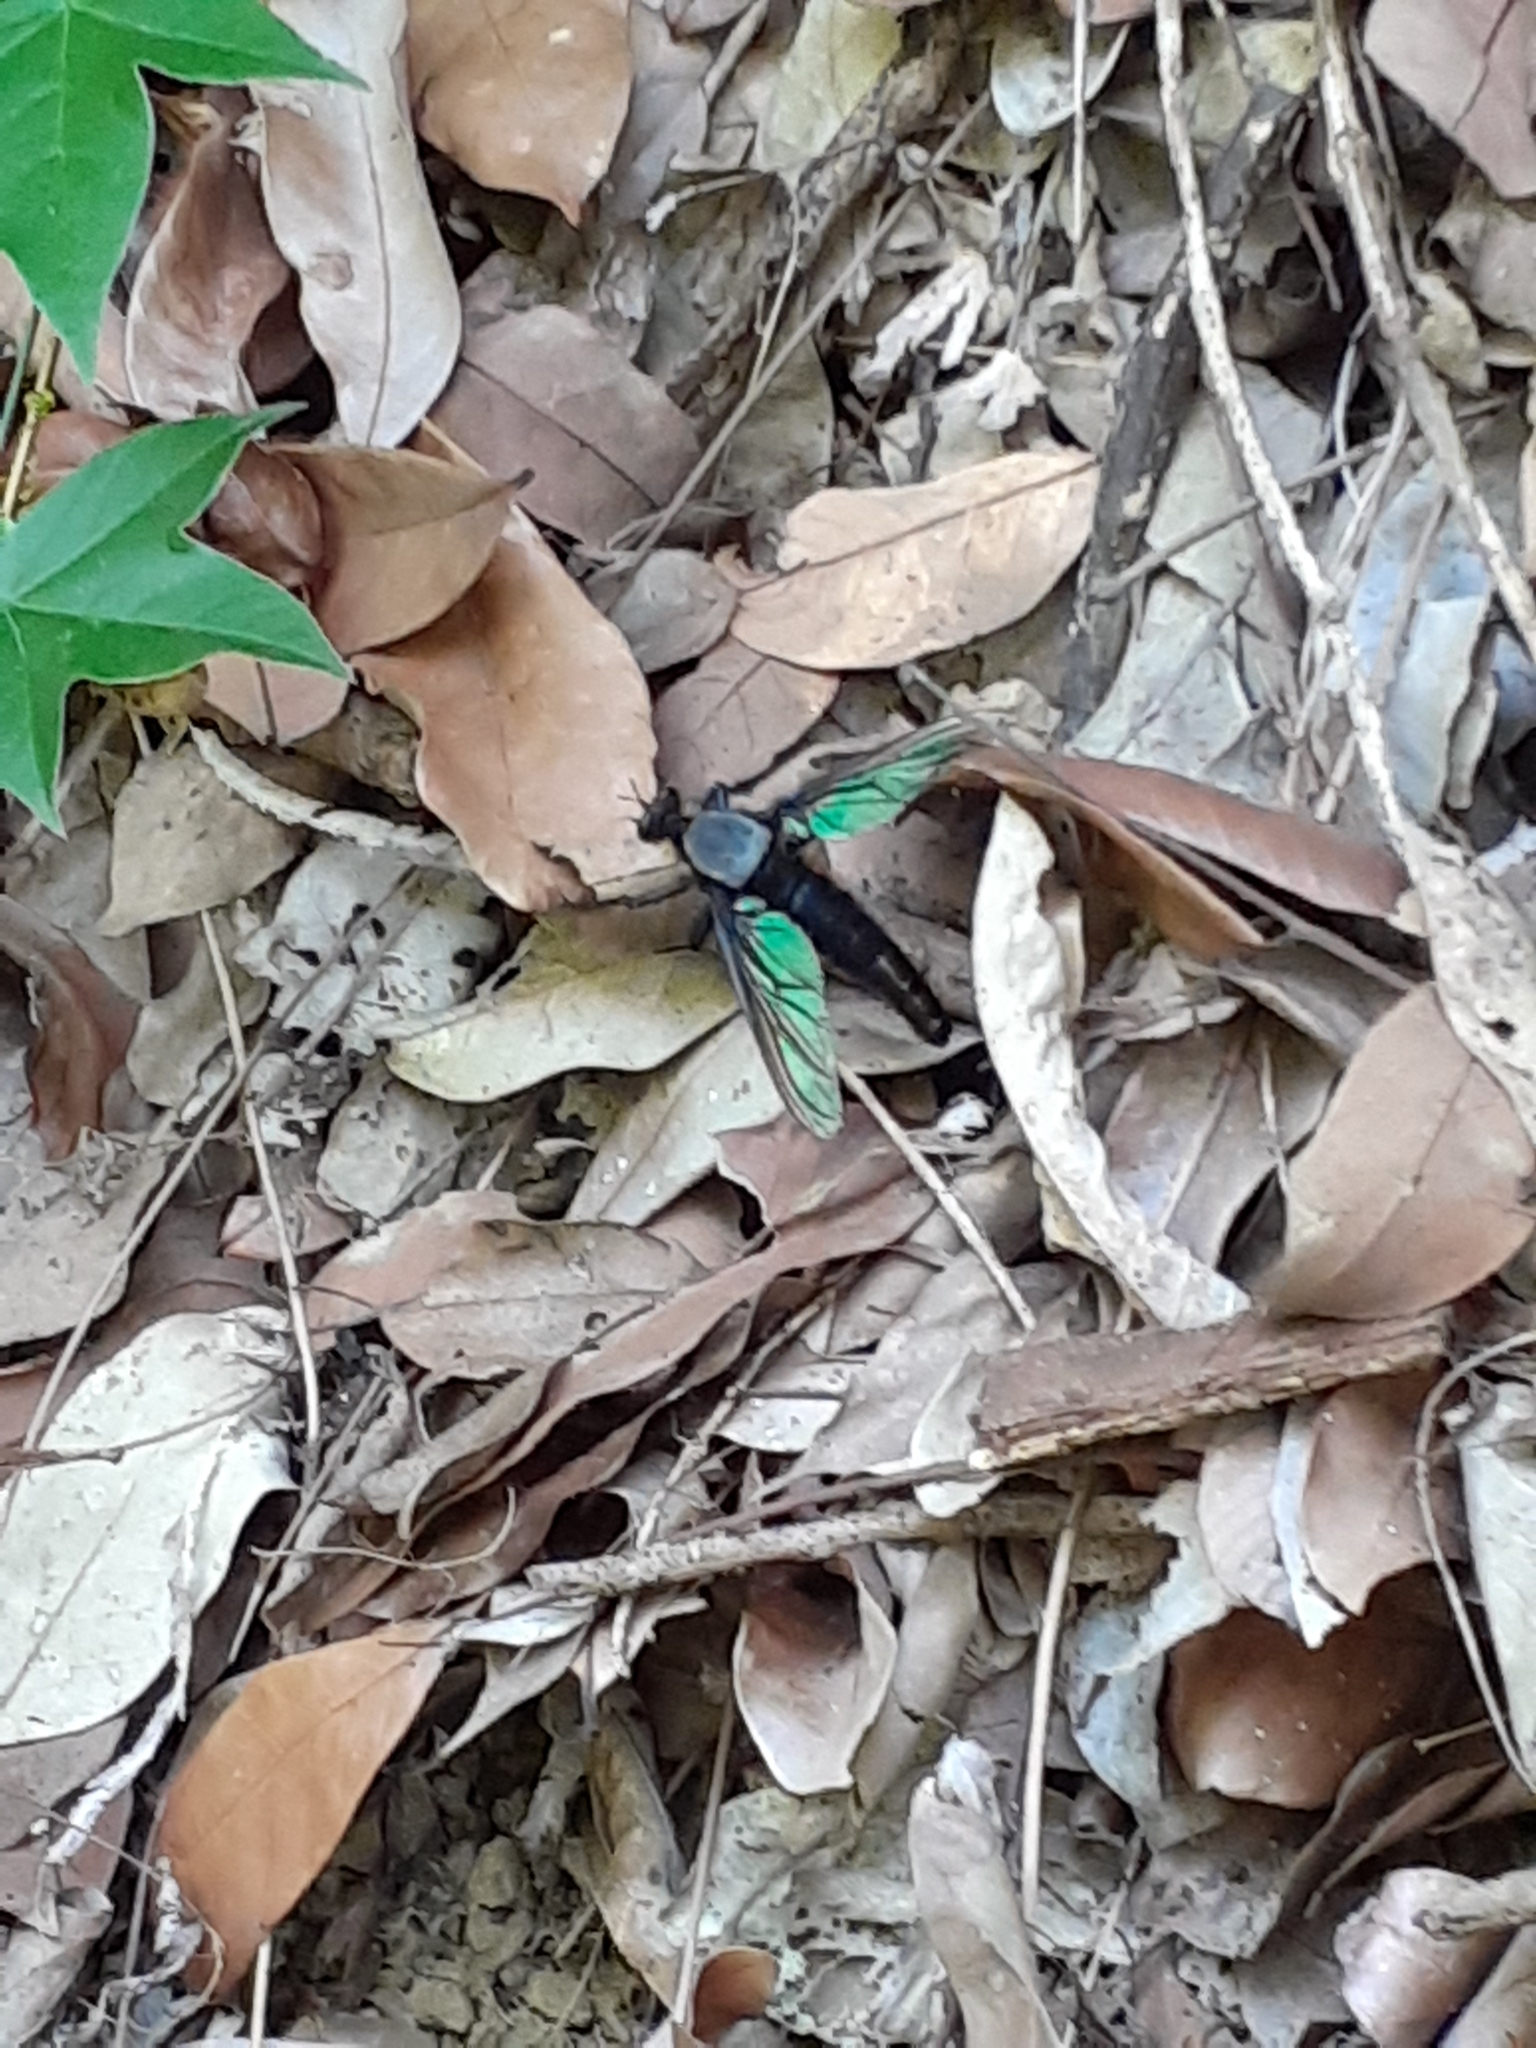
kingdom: Animalia
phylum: Arthropoda
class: Insecta
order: Diptera
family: Asilidae
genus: Microstylum
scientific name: Microstylum oberthurii
